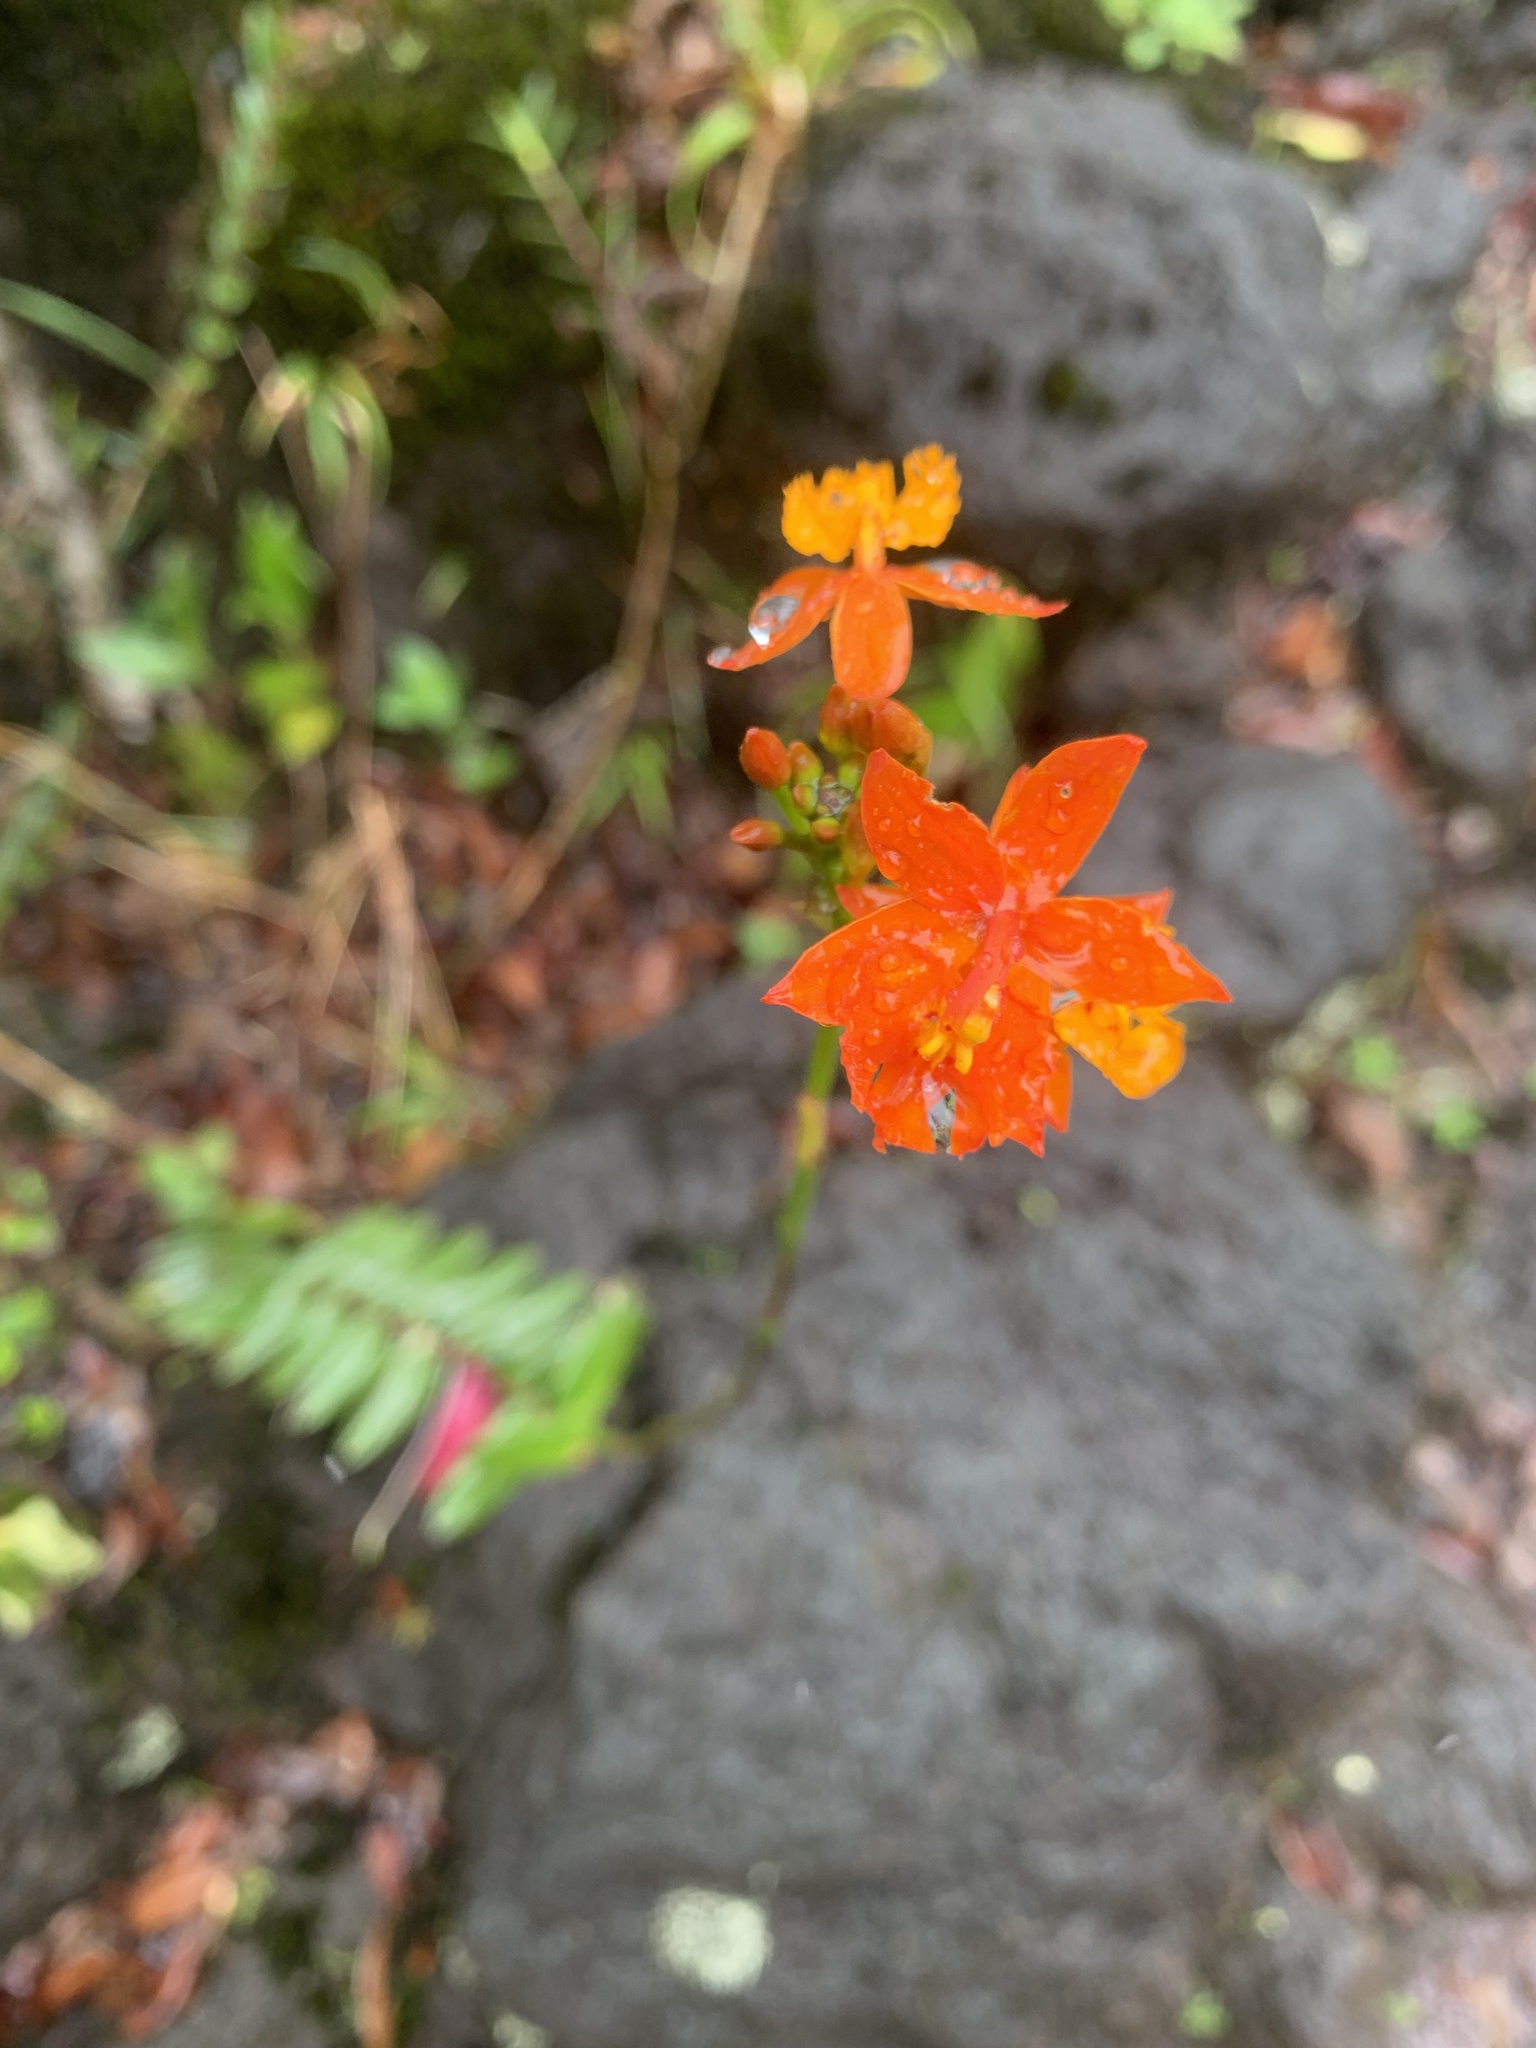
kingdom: Plantae
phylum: Tracheophyta
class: Liliopsida
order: Asparagales
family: Orchidaceae
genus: Epidendrum
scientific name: Epidendrum radicans
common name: Fire star orchid
